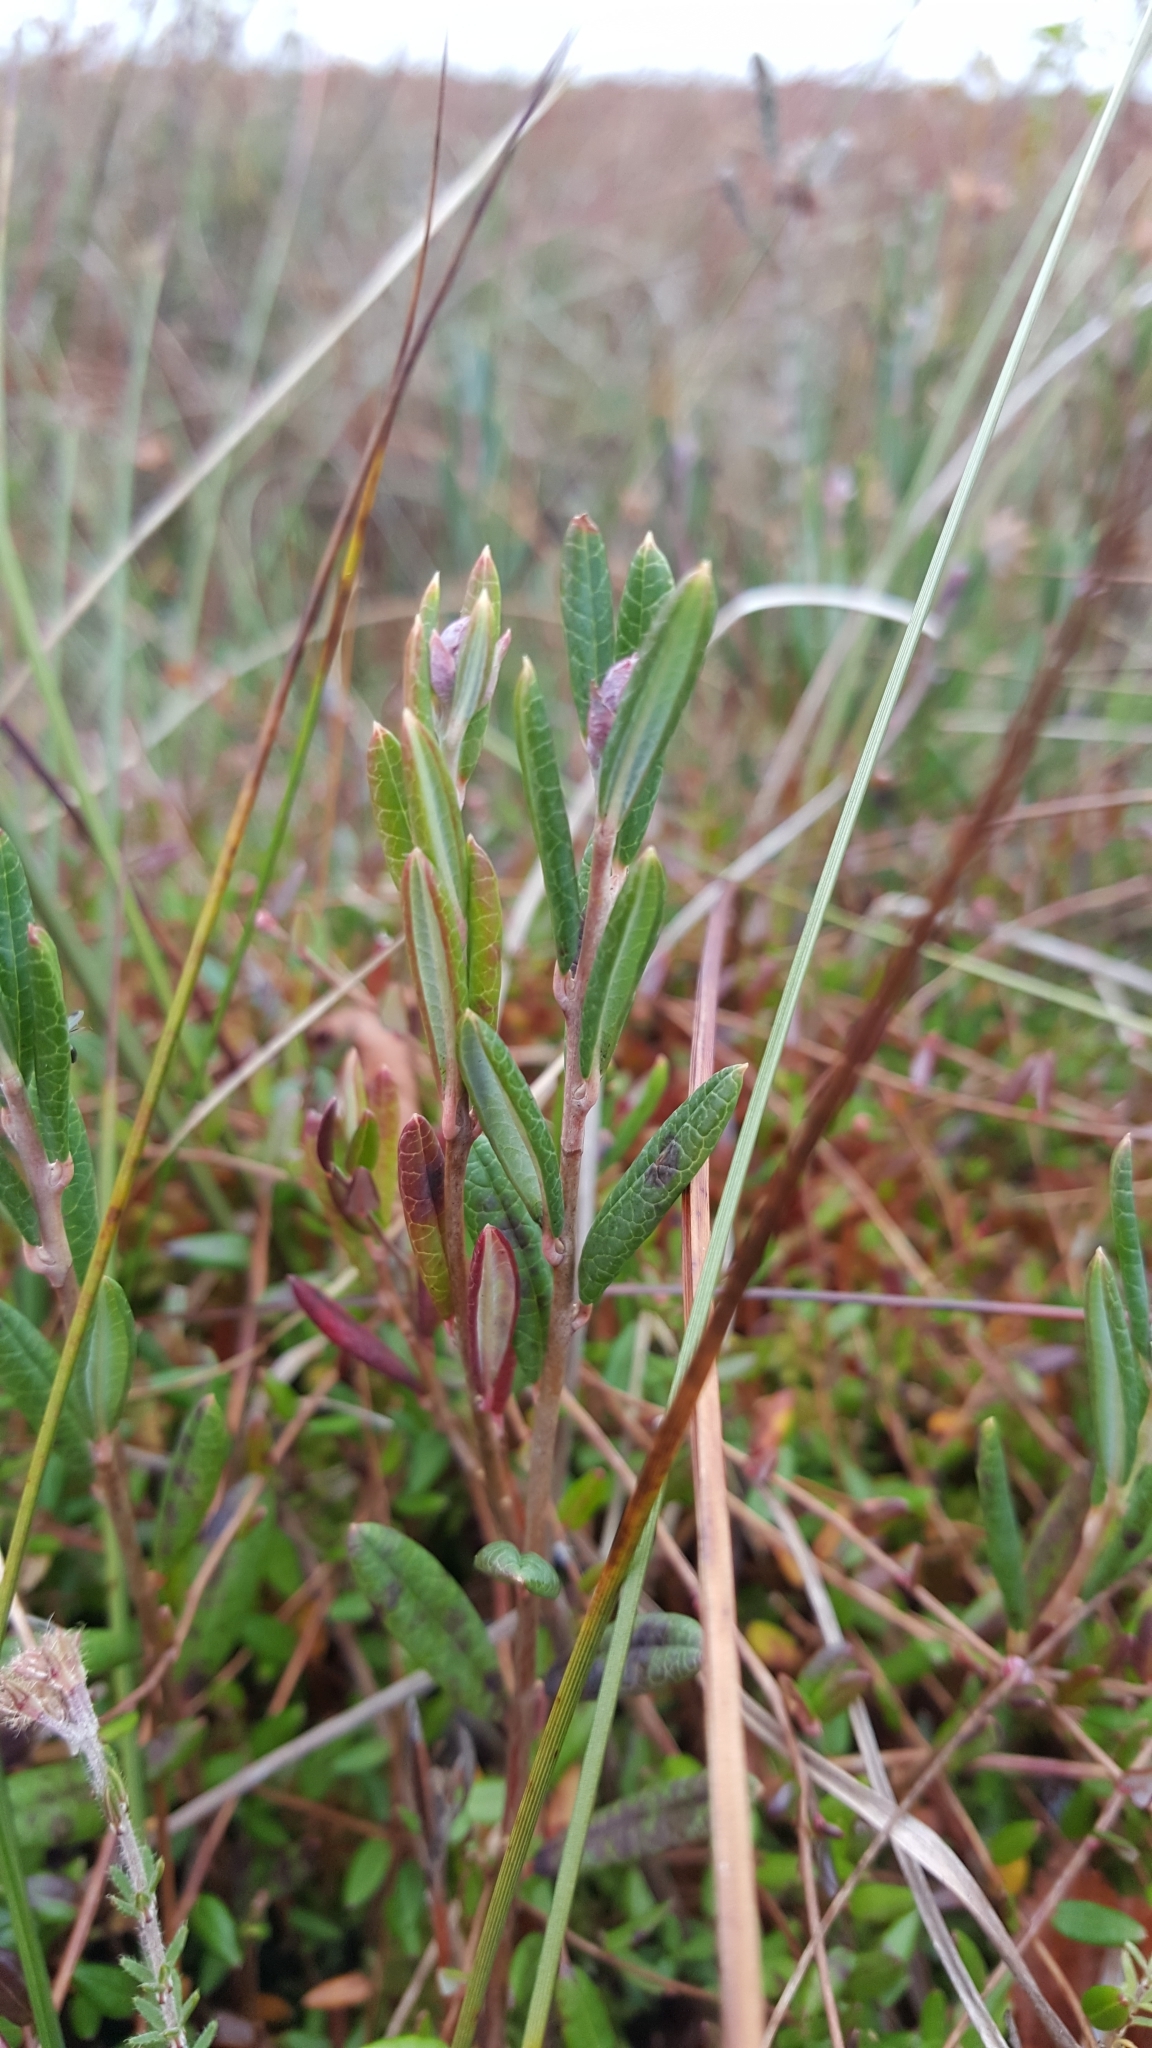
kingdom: Plantae
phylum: Tracheophyta
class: Magnoliopsida
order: Ericales
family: Ericaceae
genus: Andromeda
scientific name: Andromeda polifolia
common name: Bog-rosemary
